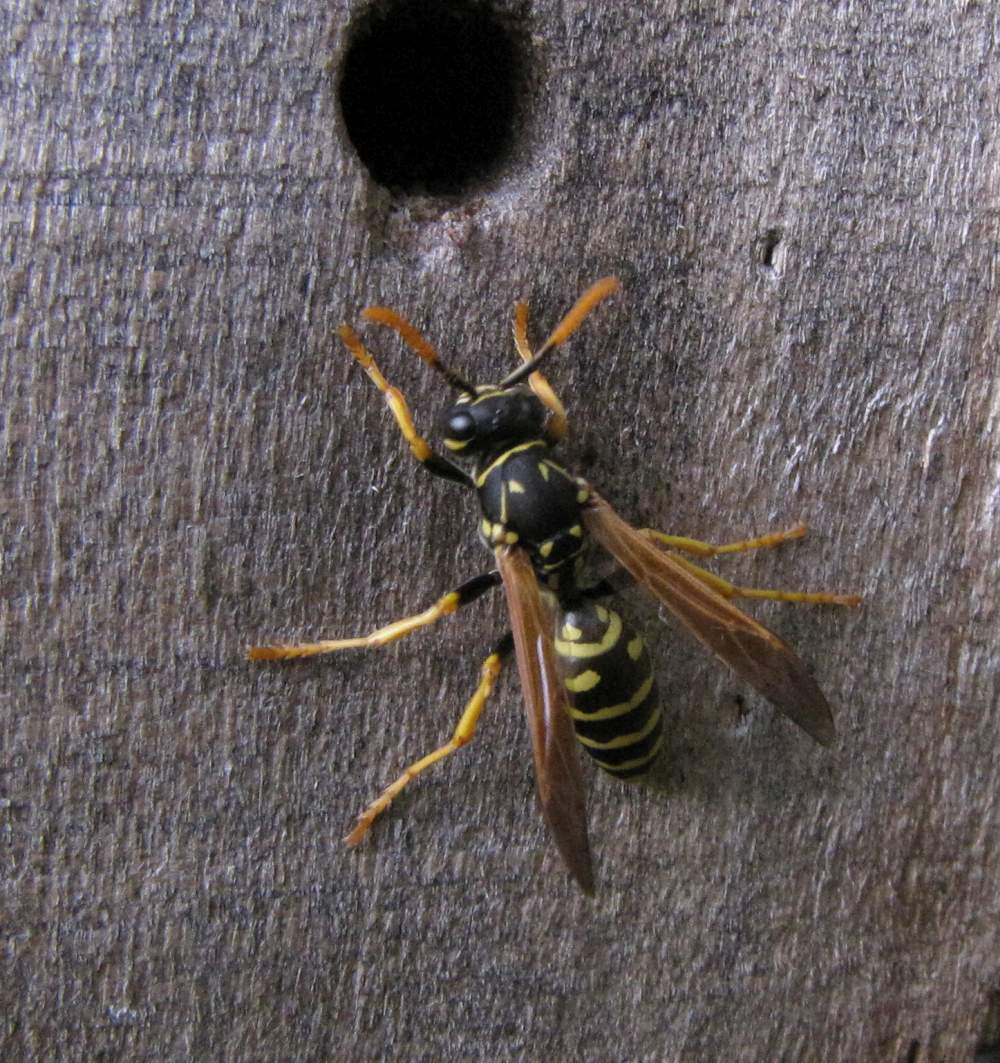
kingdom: Animalia
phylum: Arthropoda
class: Insecta
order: Hymenoptera
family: Eumenidae
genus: Polistes
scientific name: Polistes dominula
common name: Paper wasp
